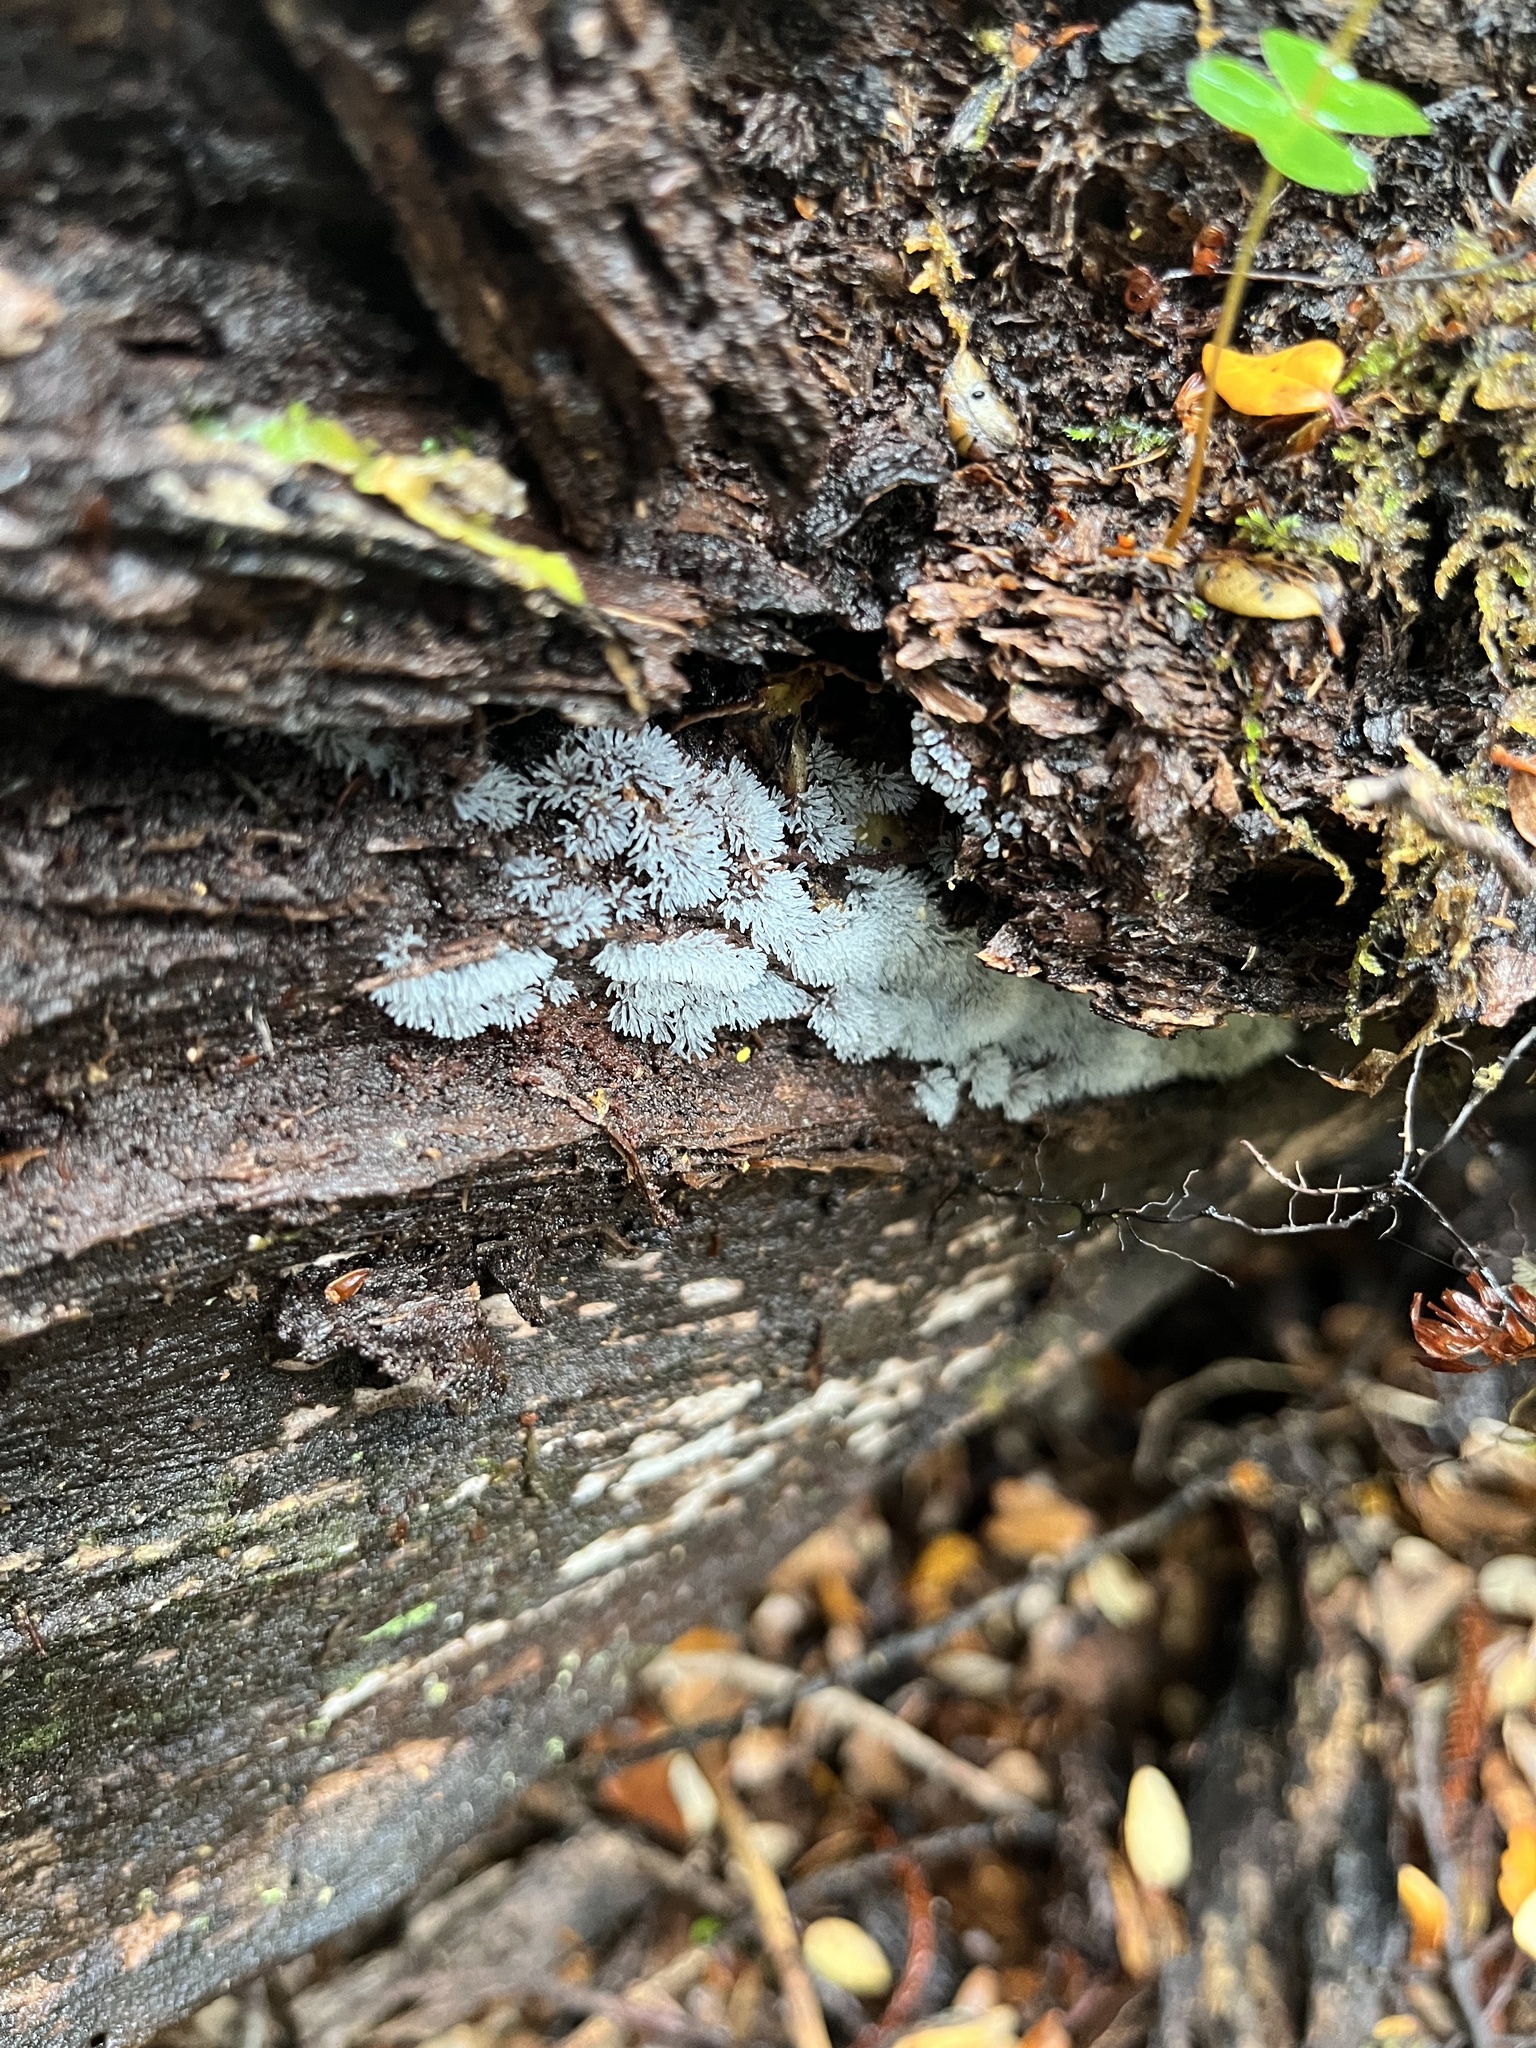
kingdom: Protozoa
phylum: Mycetozoa
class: Protosteliomycetes
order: Ceratiomyxales
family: Ceratiomyxaceae
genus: Ceratiomyxa
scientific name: Ceratiomyxa fruticulosa
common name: Honeycomb coral slime mold
